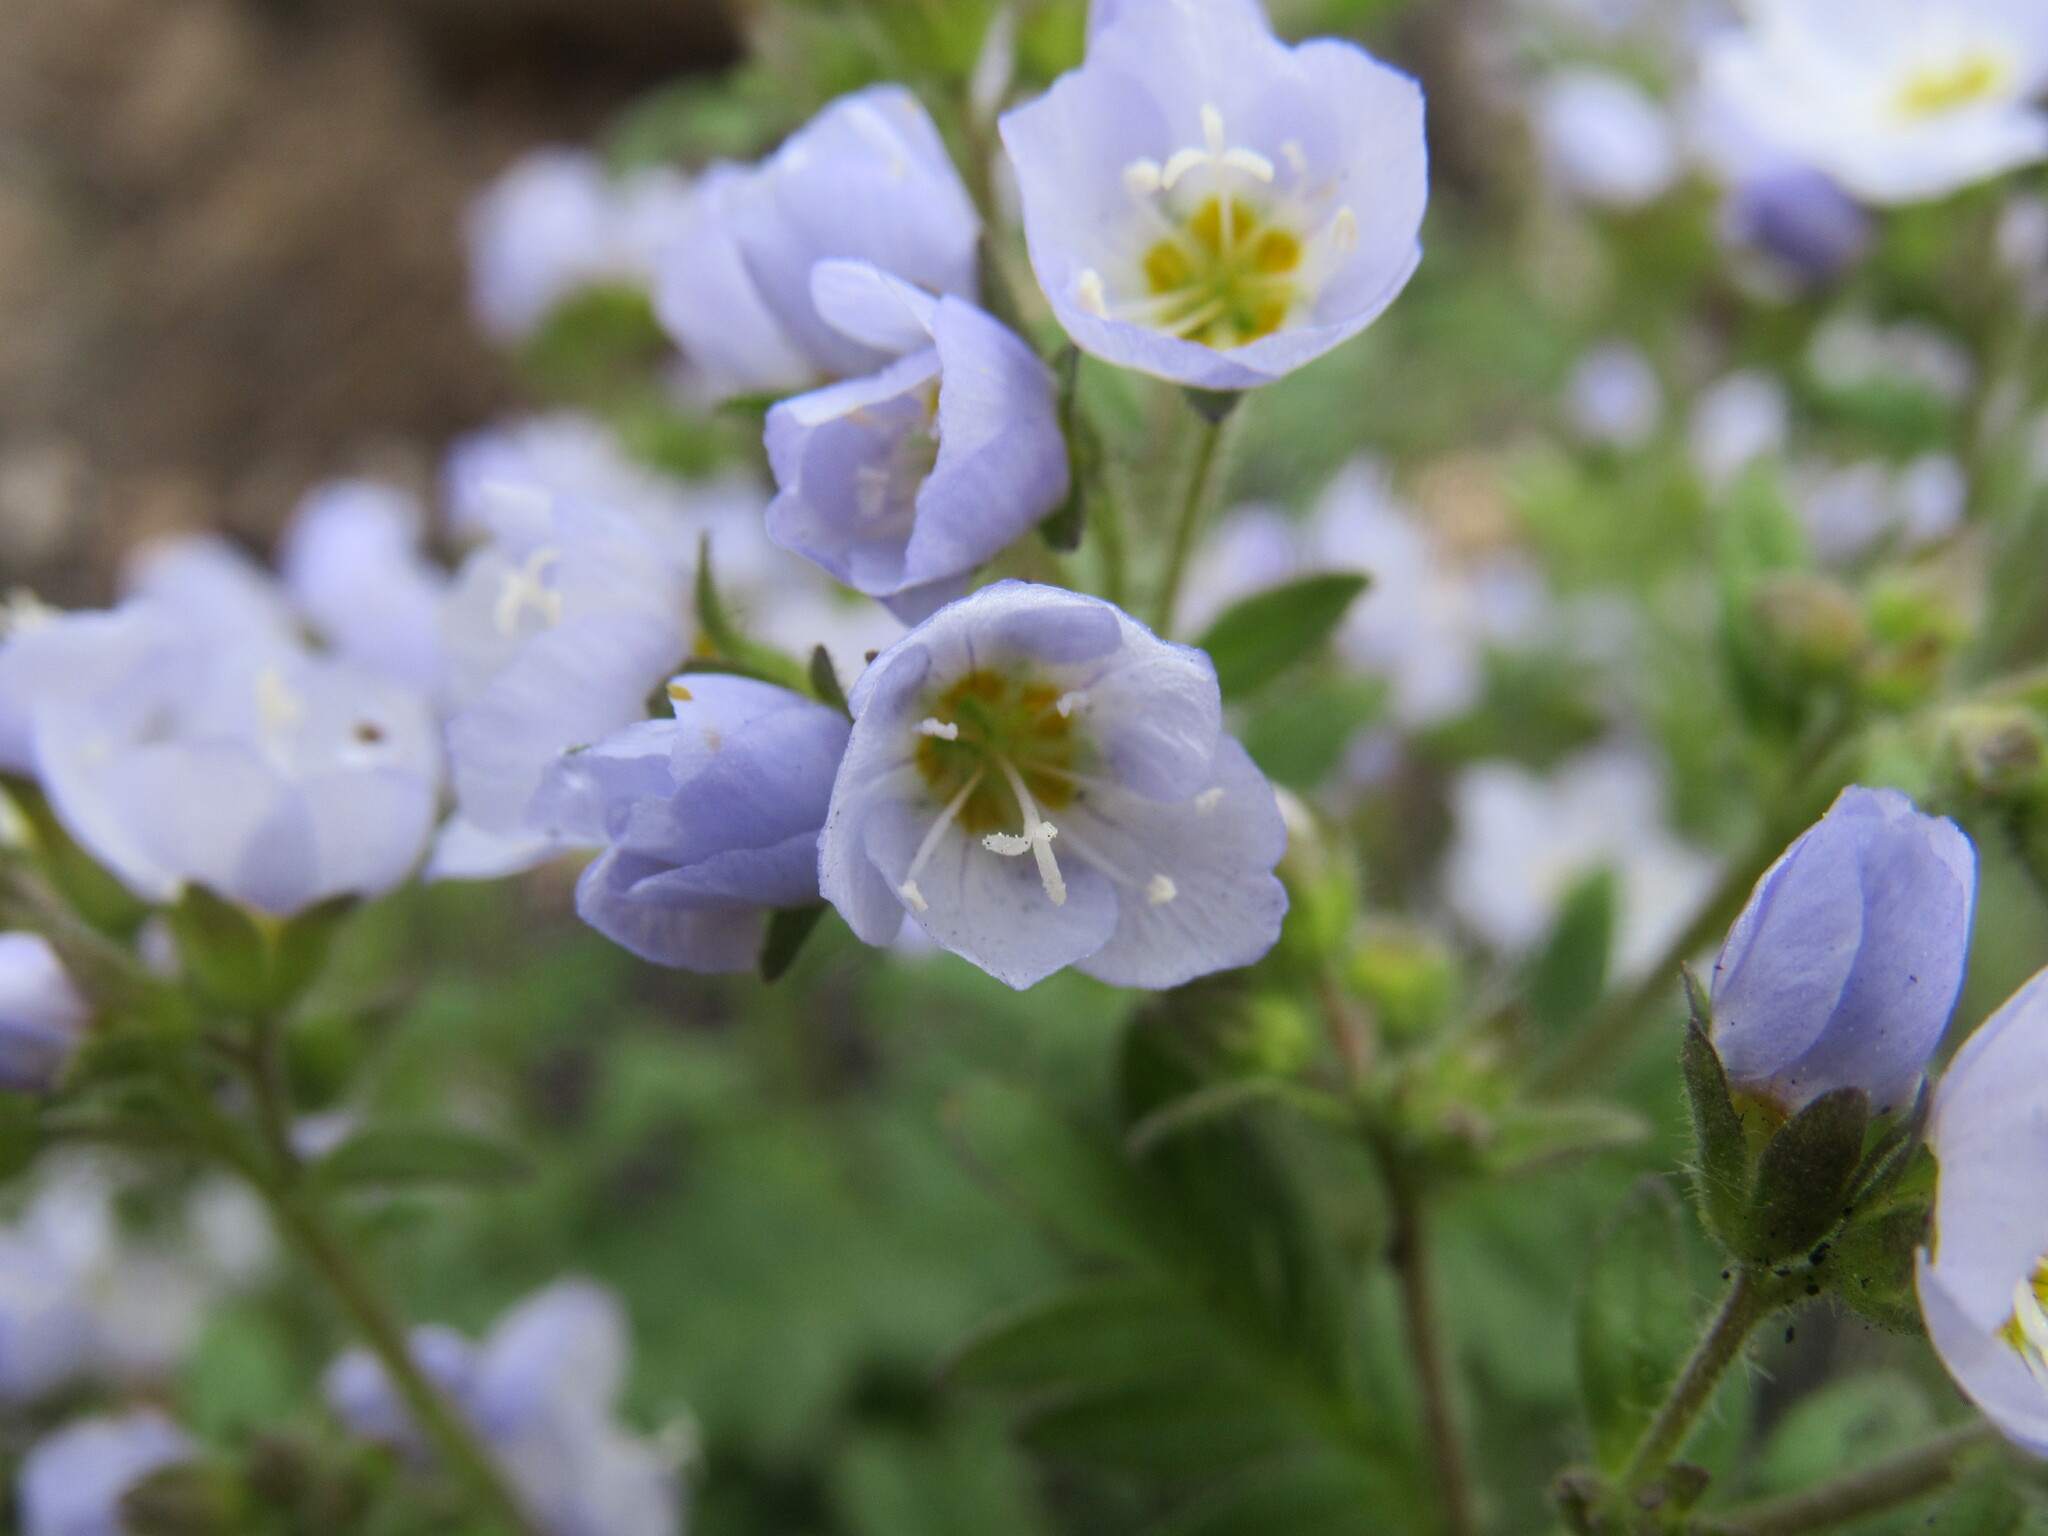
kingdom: Plantae
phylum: Tracheophyta
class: Magnoliopsida
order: Ericales
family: Polemoniaceae
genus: Polemonium
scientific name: Polemonium pulcherrimum
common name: Short jacob's-ladder
